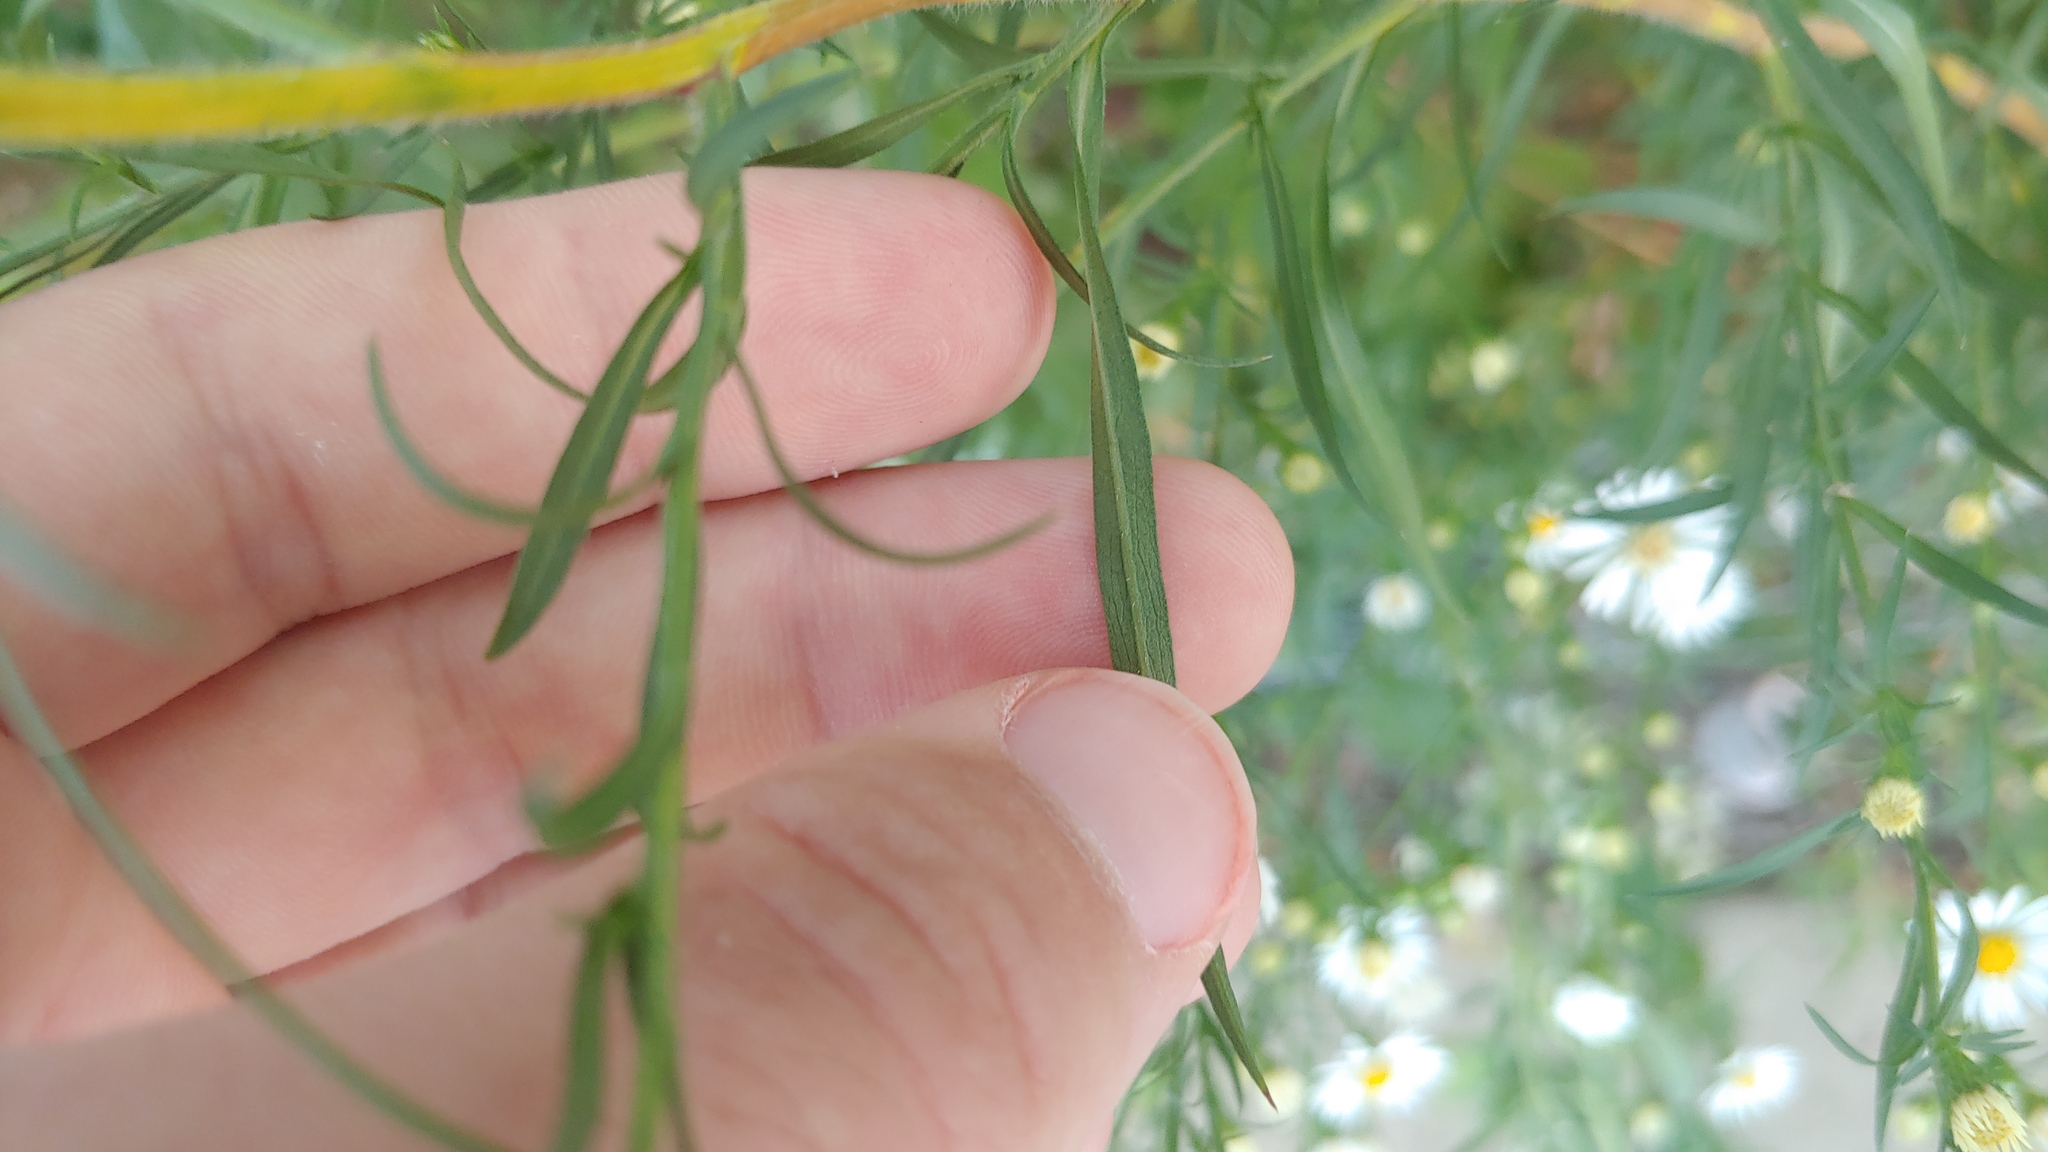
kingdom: Plantae
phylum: Tracheophyta
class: Magnoliopsida
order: Asterales
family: Asteraceae
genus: Symphyotrichum
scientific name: Symphyotrichum pilosum
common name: Awl aster
